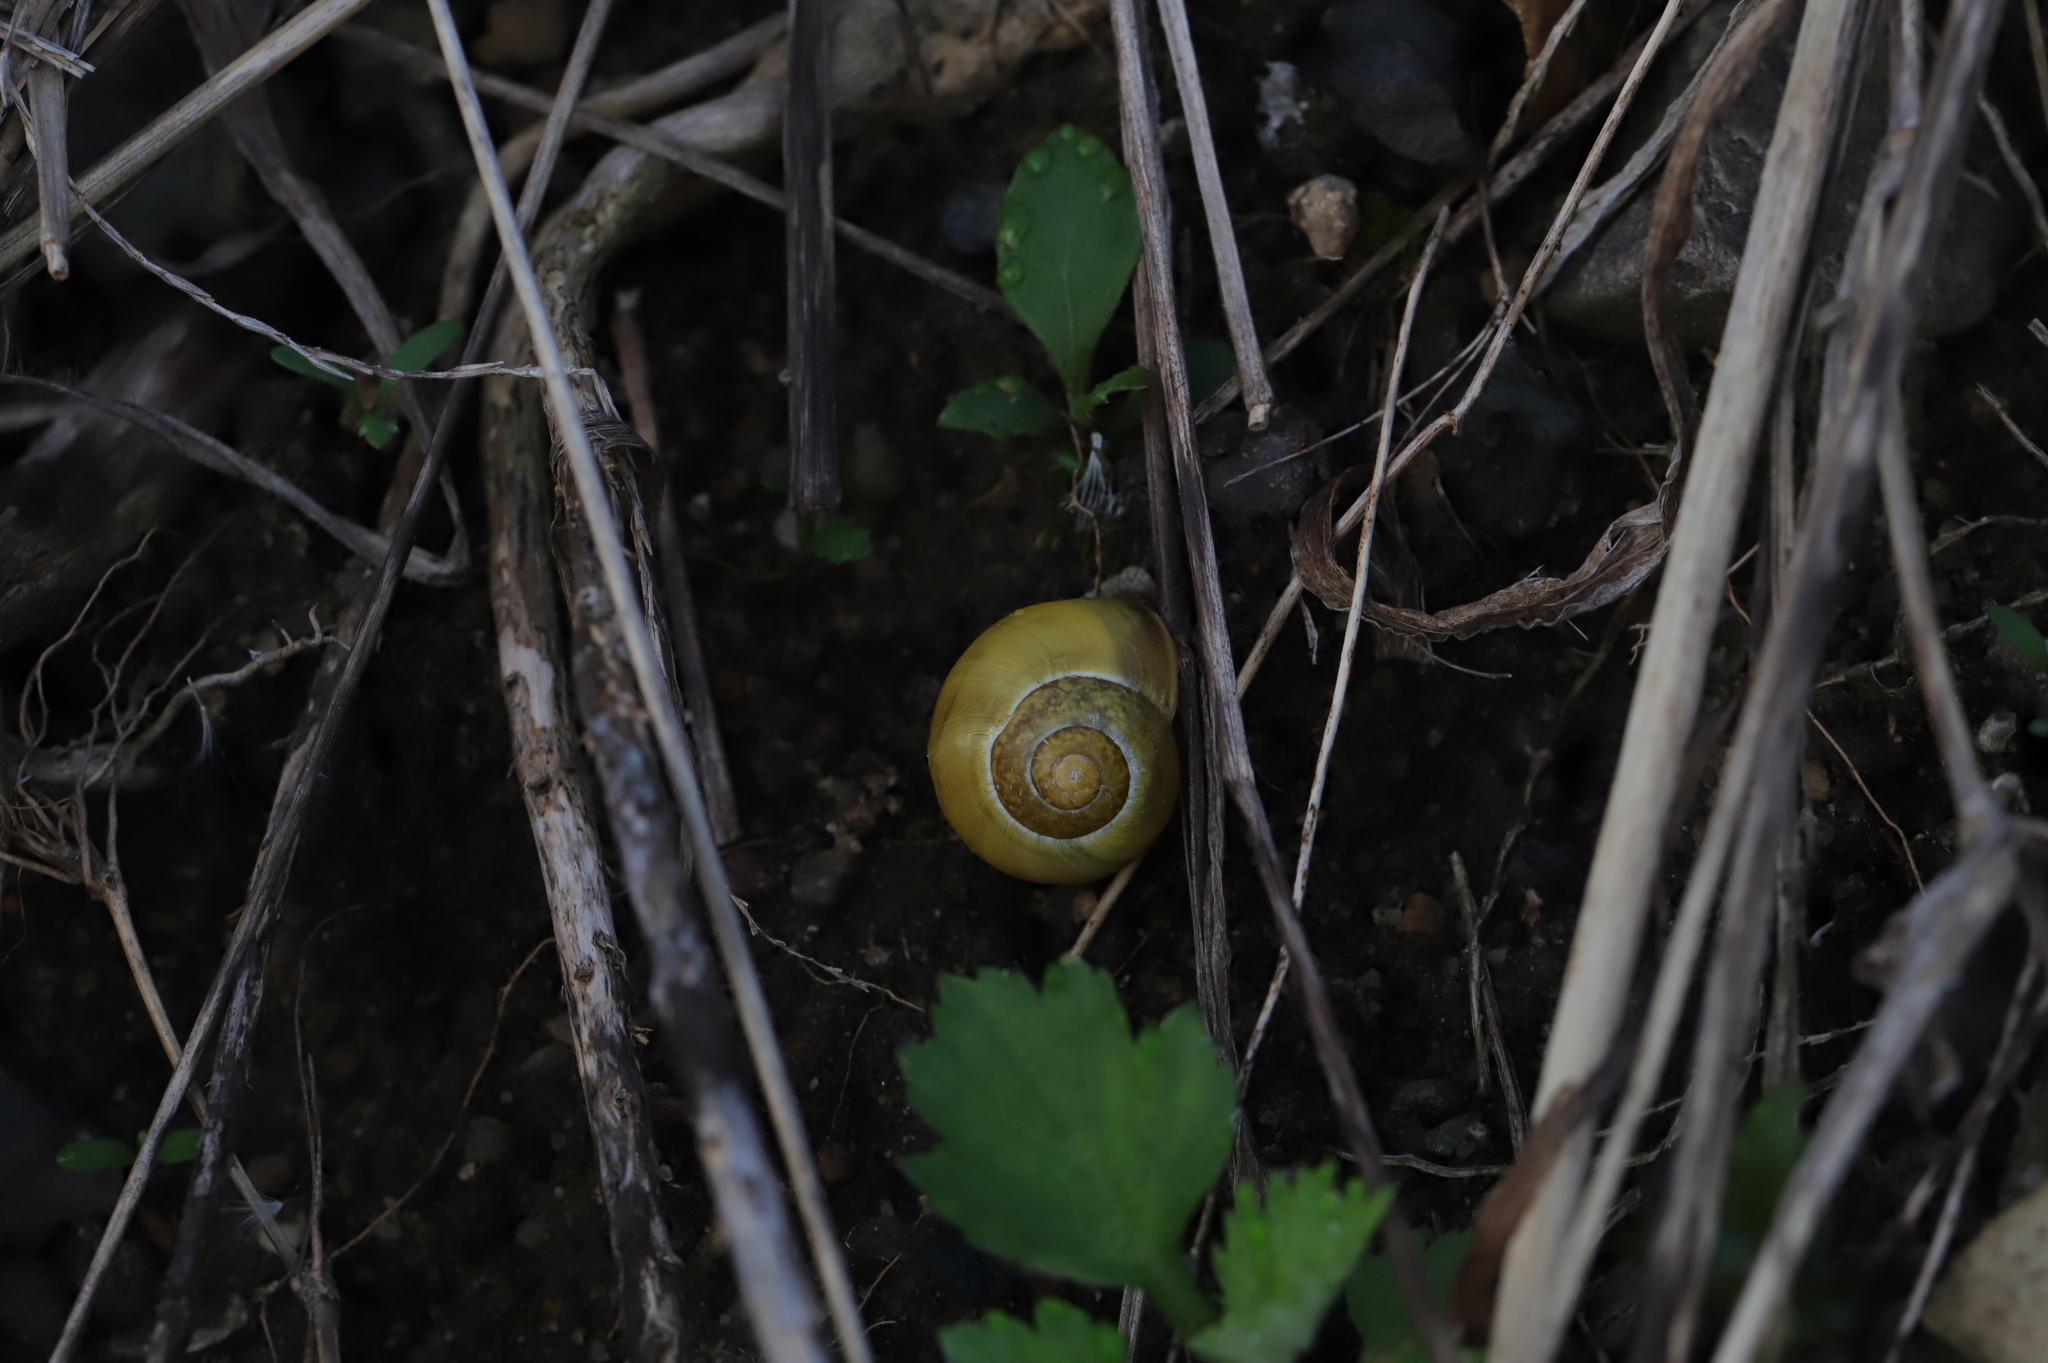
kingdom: Animalia
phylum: Mollusca
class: Gastropoda
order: Stylommatophora
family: Helicidae
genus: Cepaea
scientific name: Cepaea nemoralis
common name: Grovesnail
